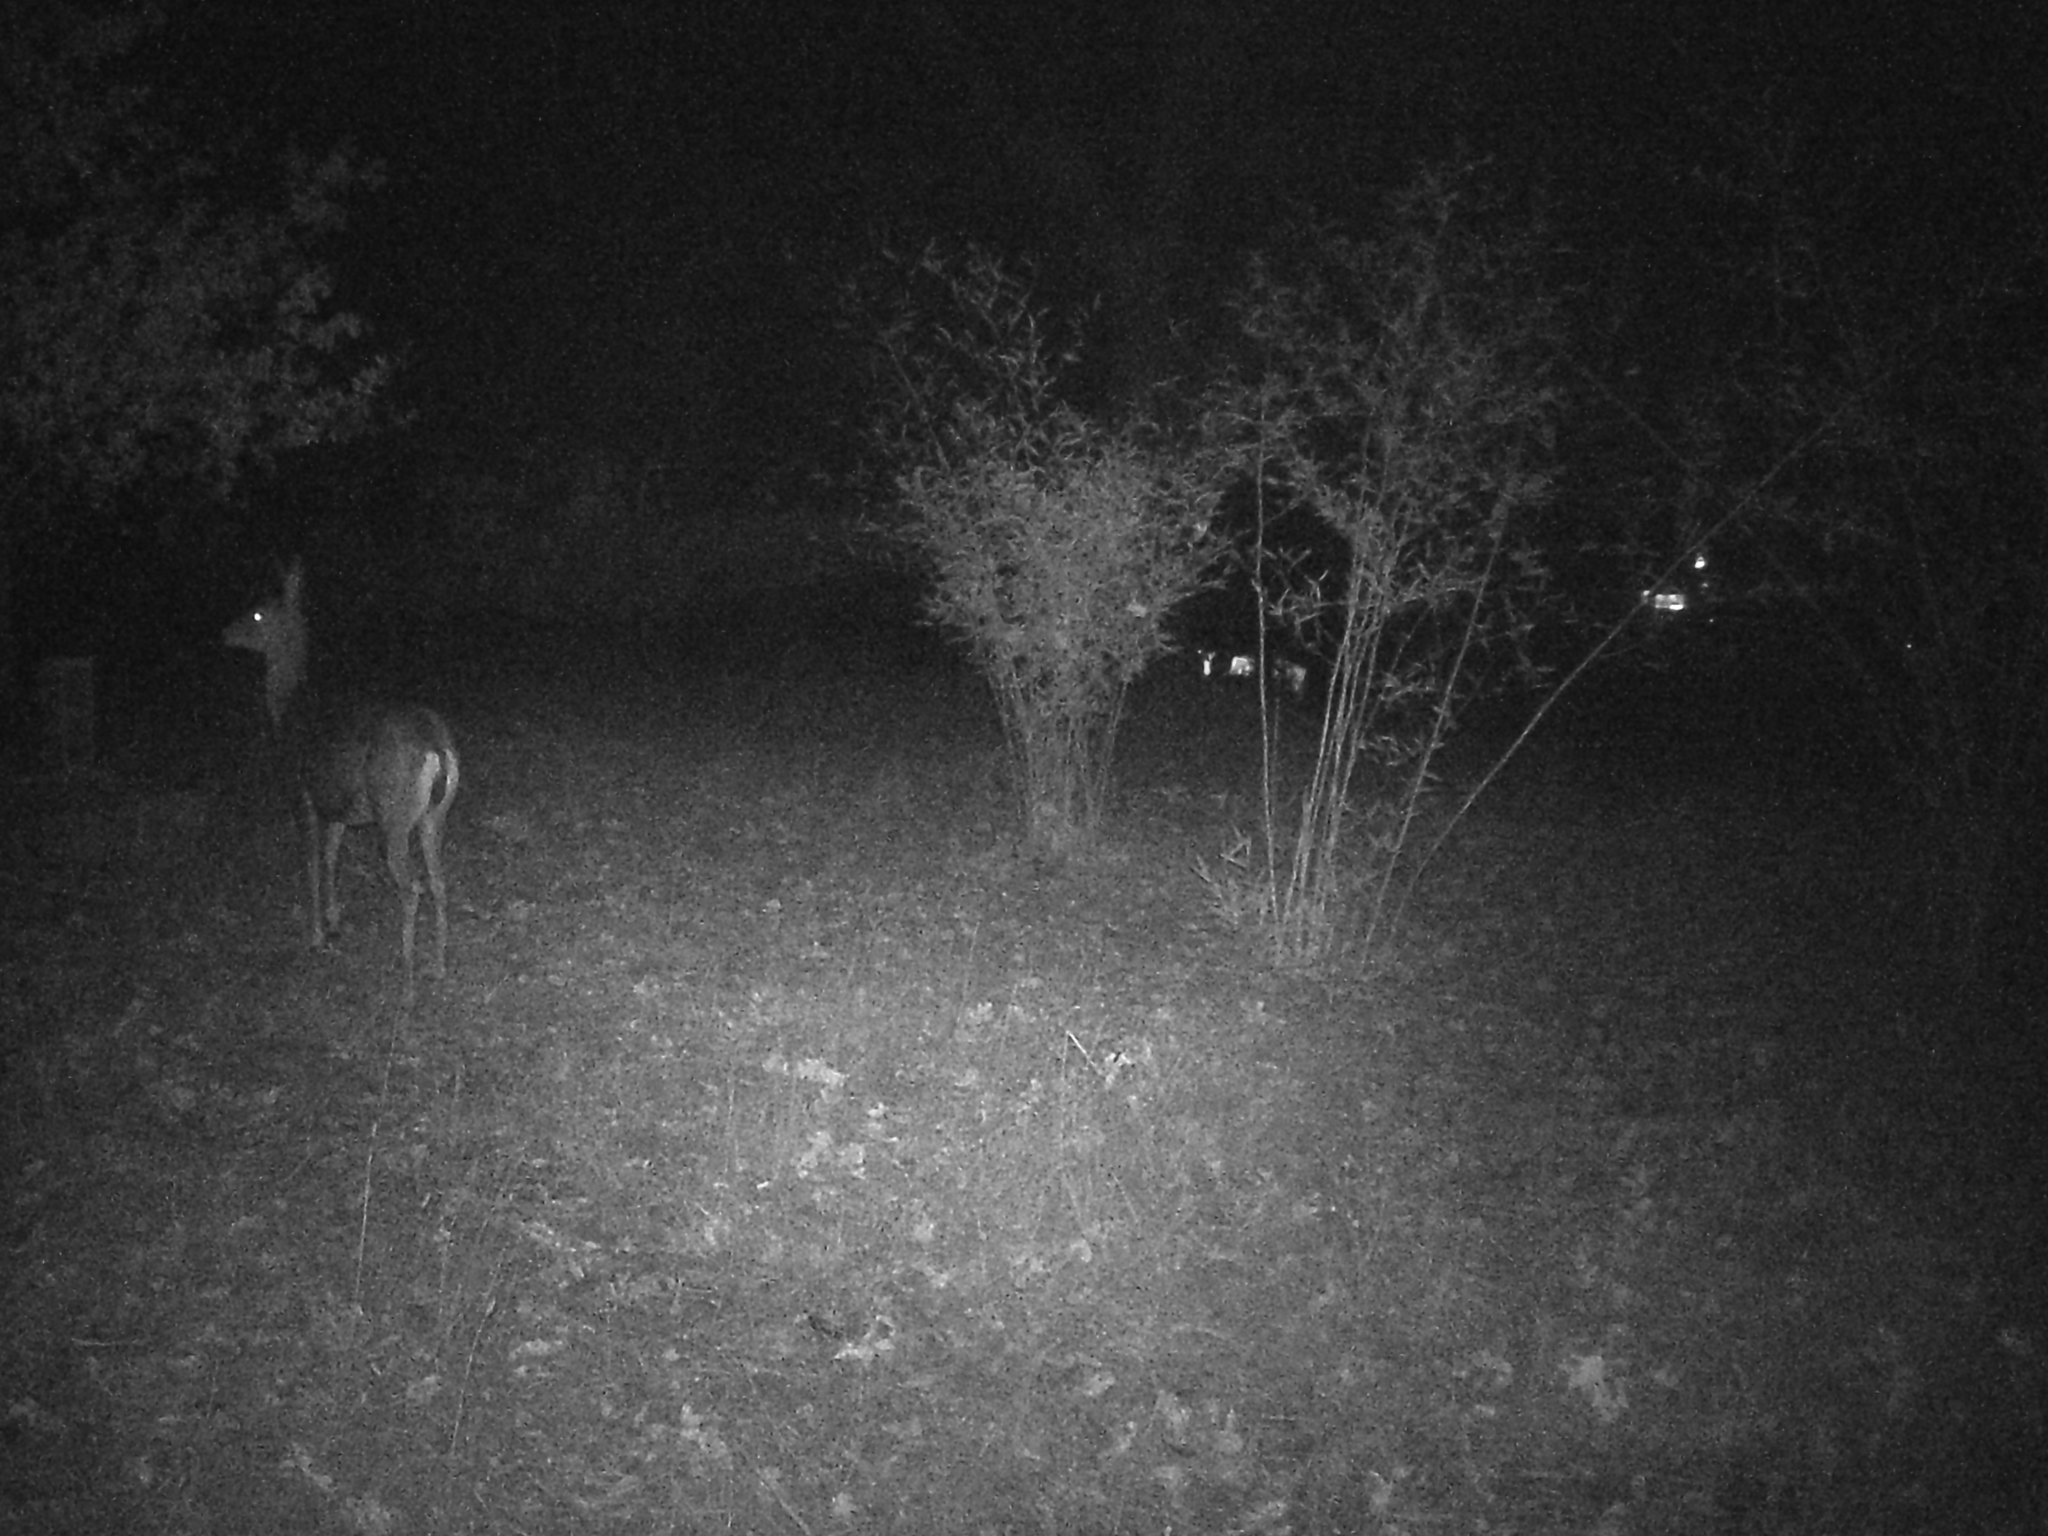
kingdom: Animalia
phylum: Chordata
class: Mammalia
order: Artiodactyla
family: Cervidae
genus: Odocoileus
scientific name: Odocoileus hemionus
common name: Mule deer
